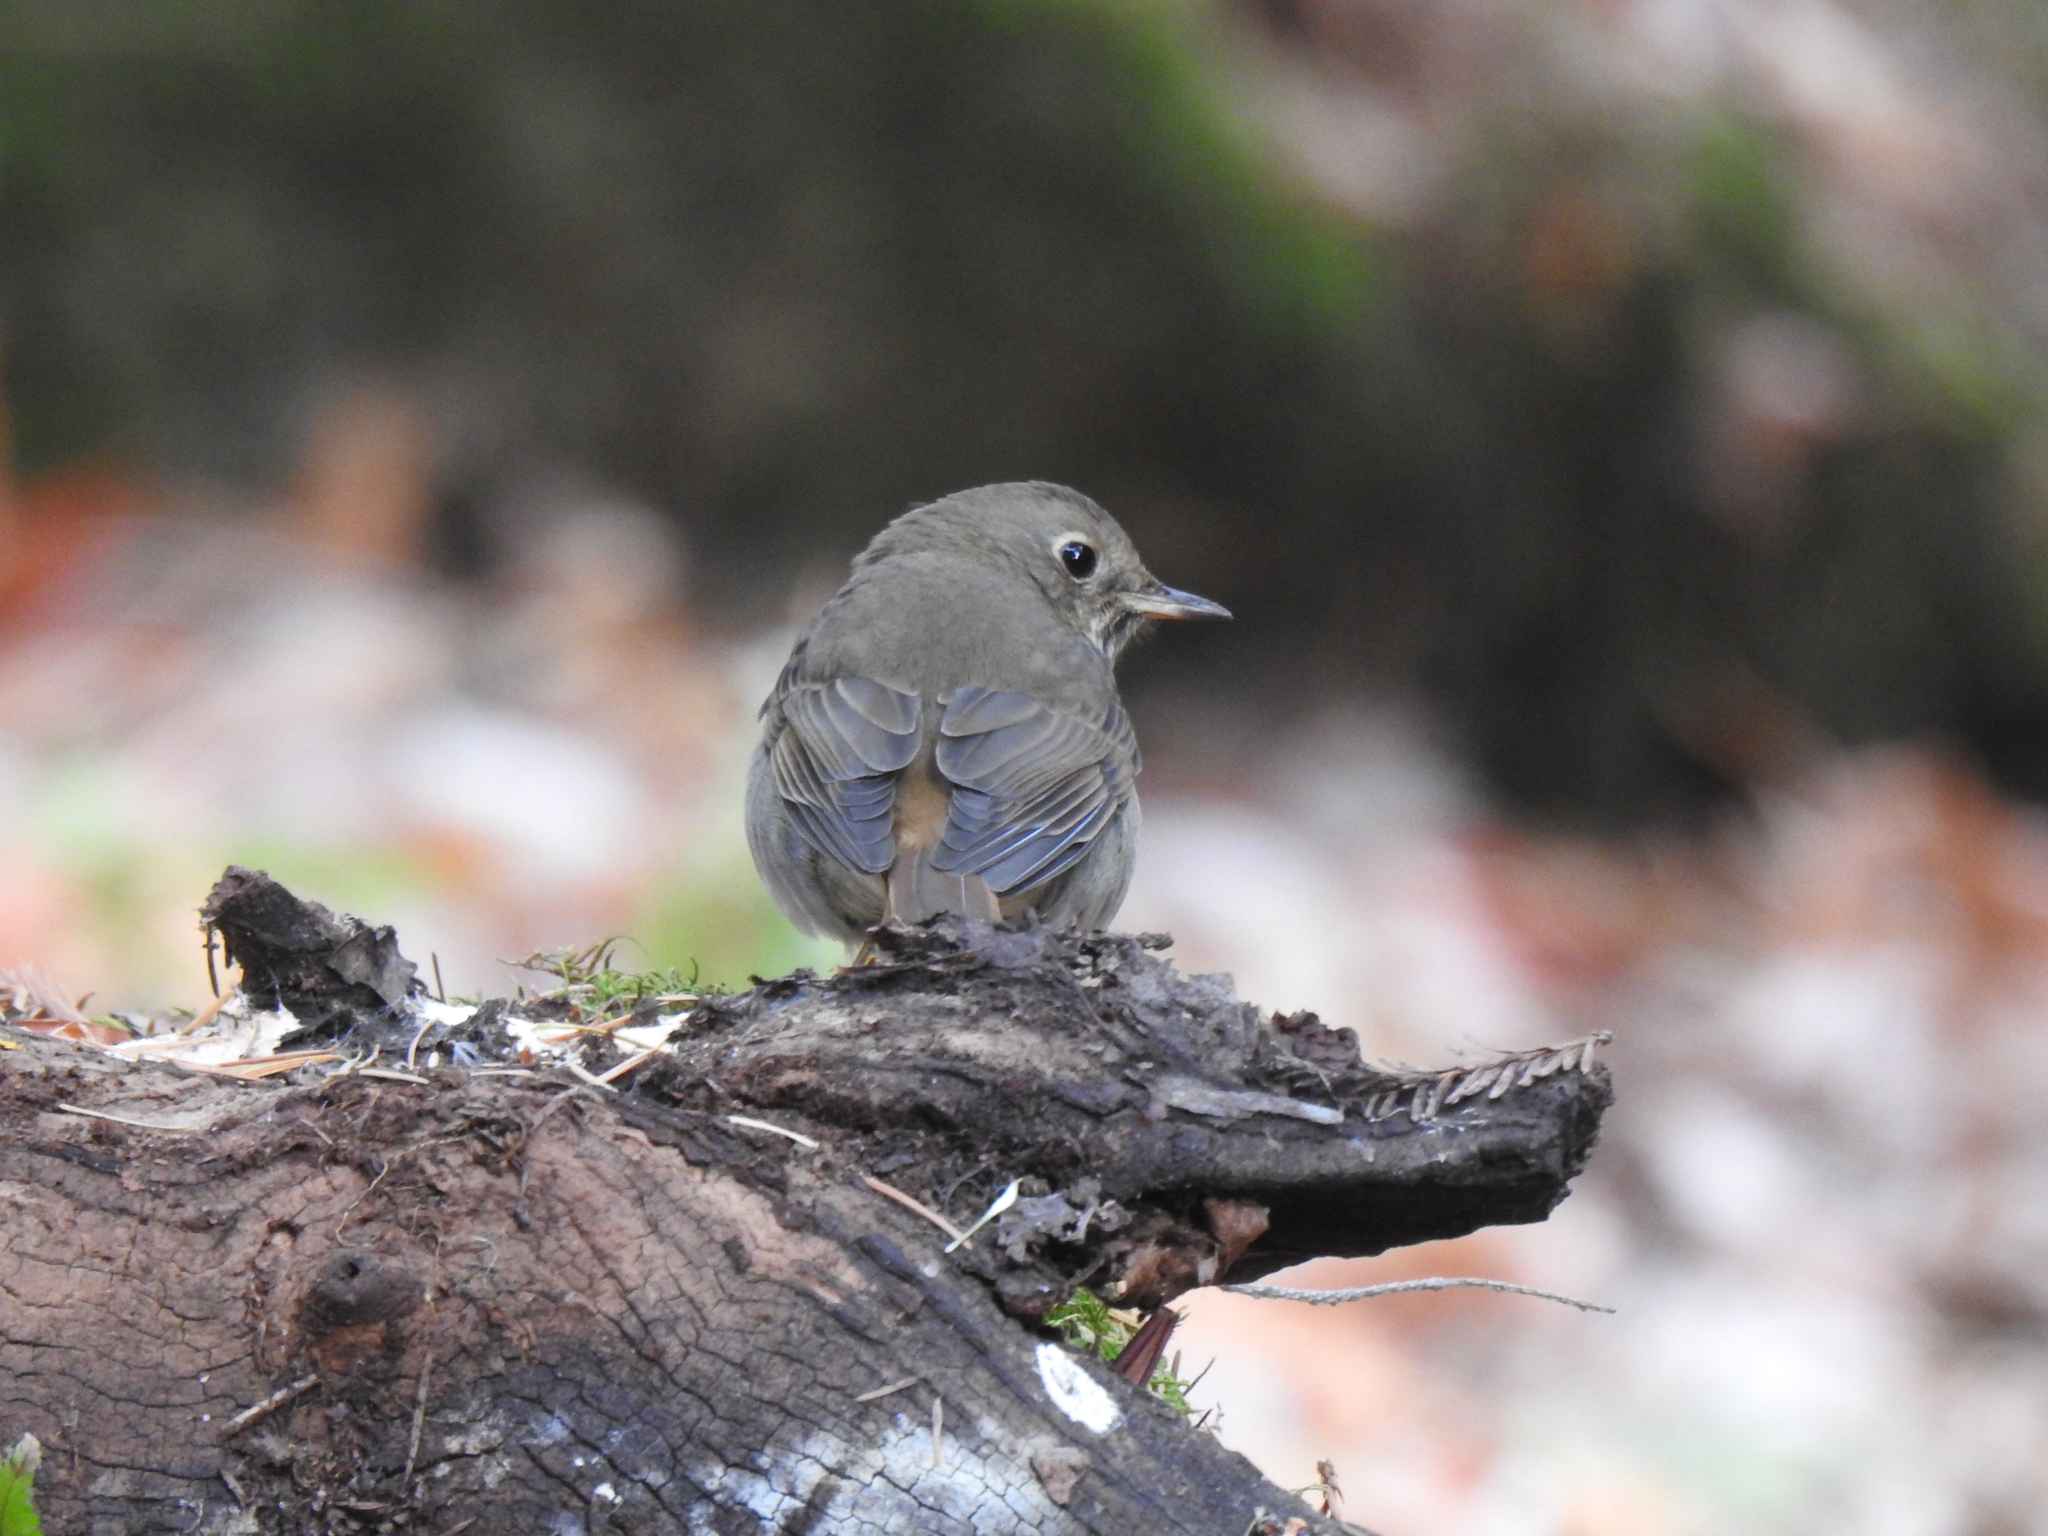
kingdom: Animalia
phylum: Chordata
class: Aves
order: Passeriformes
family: Turdidae
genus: Catharus
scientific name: Catharus guttatus
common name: Hermit thrush
